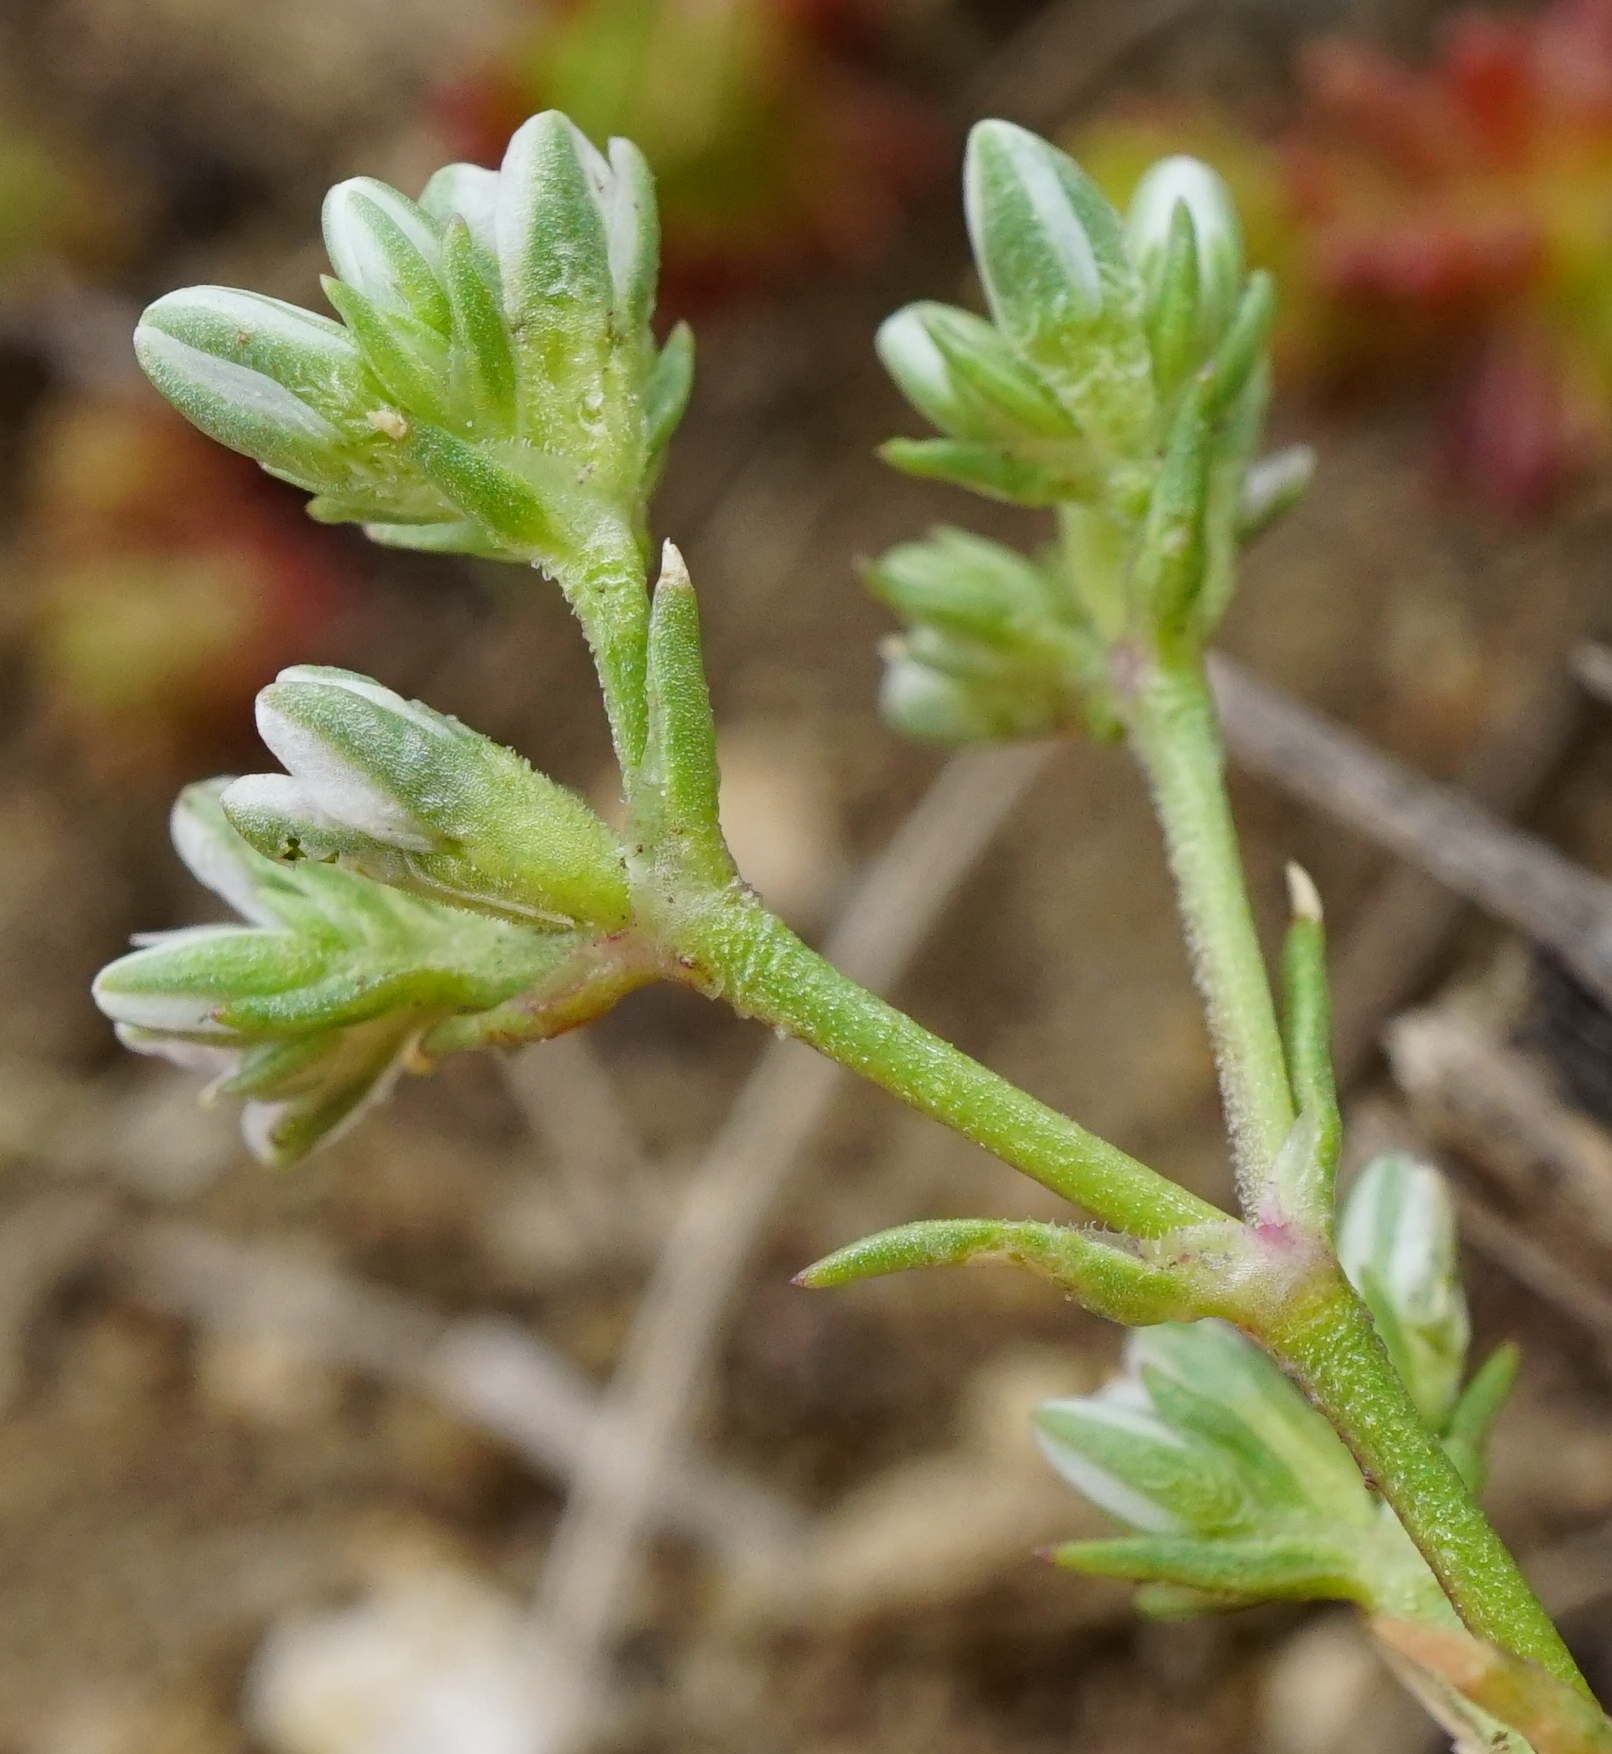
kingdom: Plantae
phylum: Tracheophyta
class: Magnoliopsida
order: Caryophyllales
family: Caryophyllaceae
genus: Scleranthus
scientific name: Scleranthus perennis
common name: Perennial knawel
